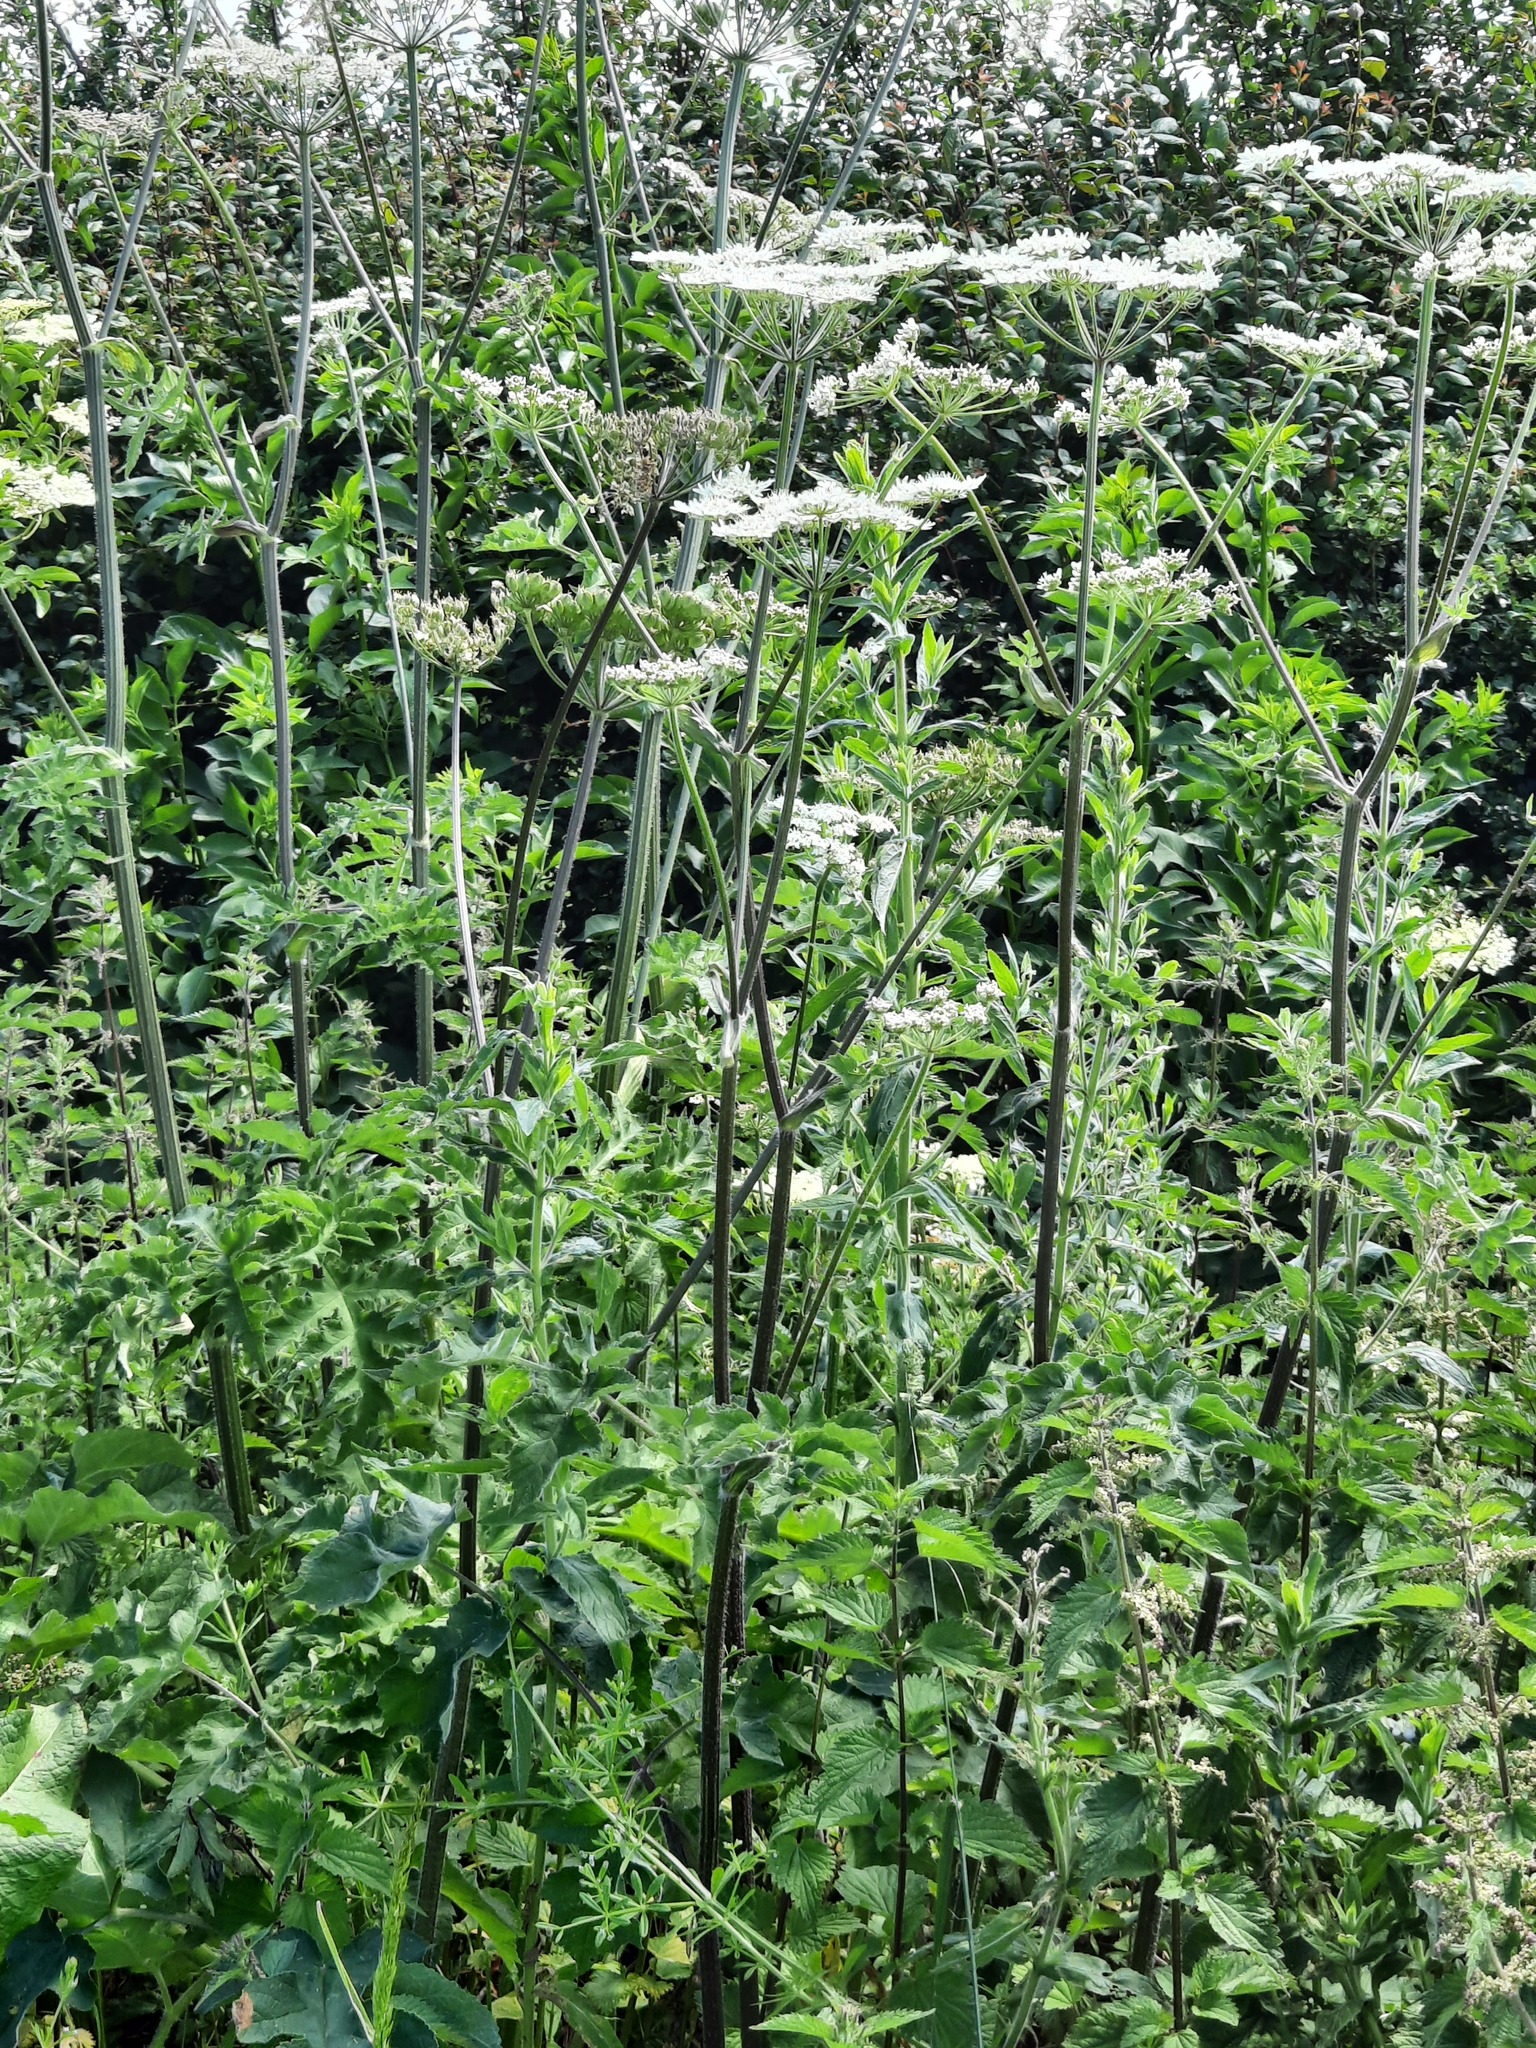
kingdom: Plantae
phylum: Tracheophyta
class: Magnoliopsida
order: Apiales
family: Apiaceae
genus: Heracleum
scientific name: Heracleum sphondylium
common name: Hogweed
